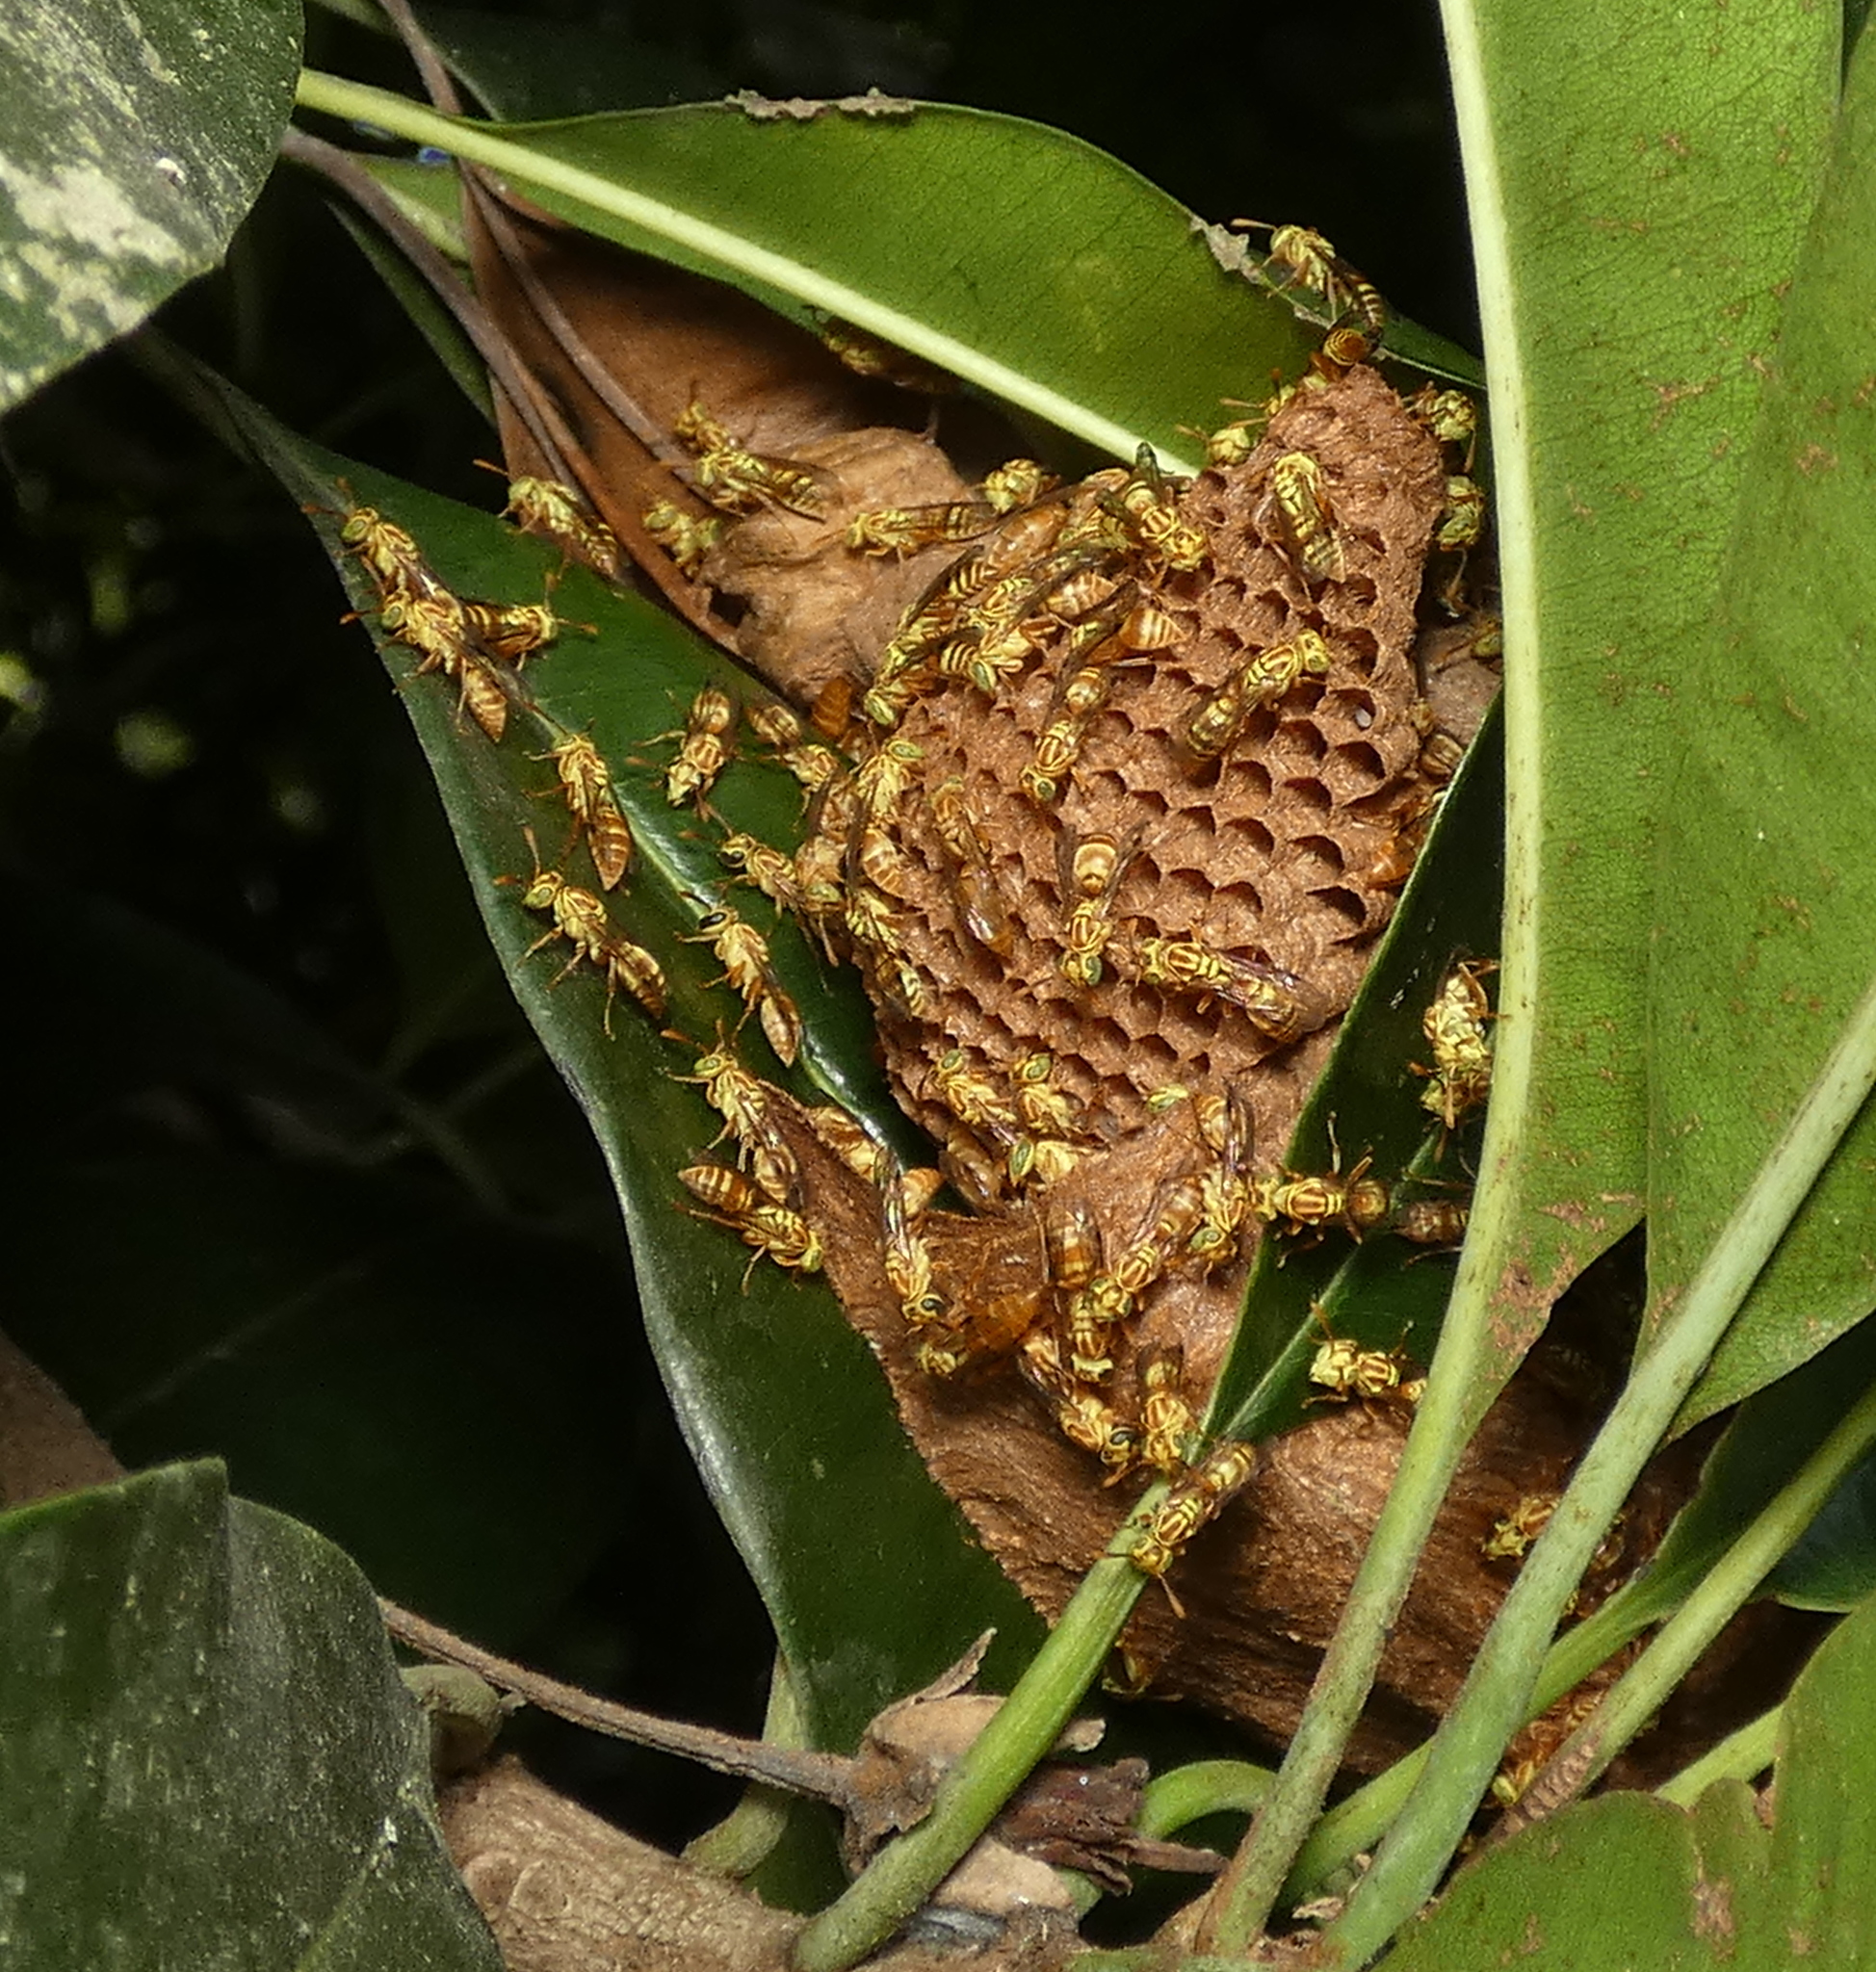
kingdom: Animalia
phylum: Arthropoda
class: Insecta
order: Hymenoptera
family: Vespidae
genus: Protopolybia
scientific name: Protopolybia potiguara
